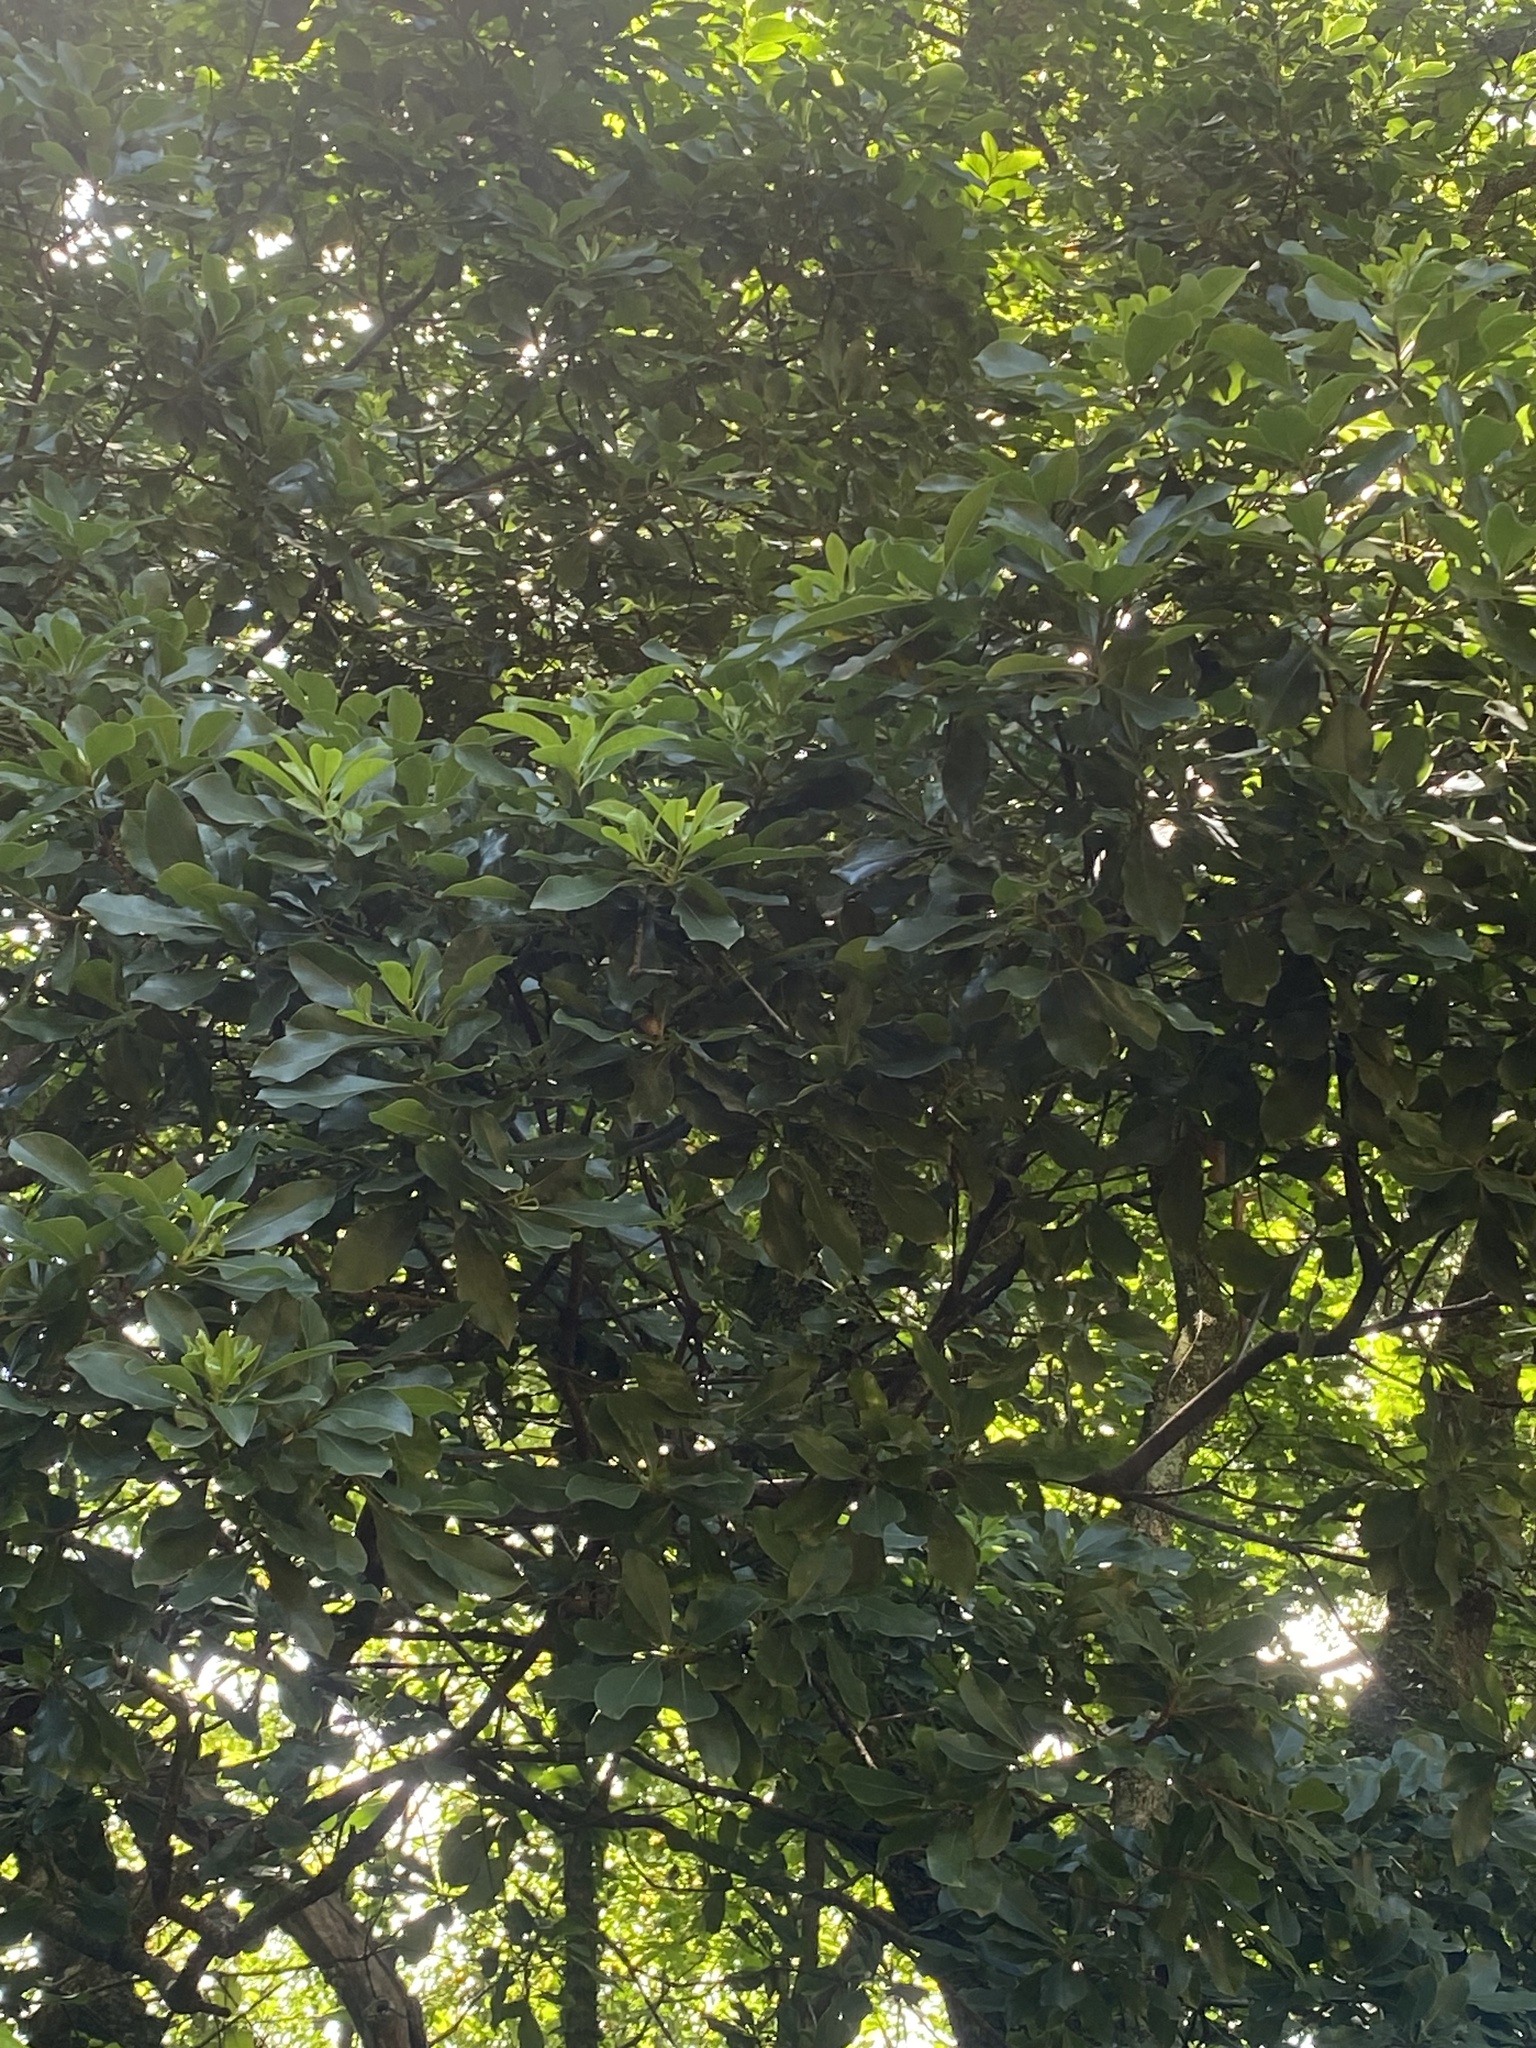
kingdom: Plantae
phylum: Tracheophyta
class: Magnoliopsida
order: Apiales
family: Pittosporaceae
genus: Pittosporum
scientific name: Pittosporum viridiflorum
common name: Cape cheesewood
